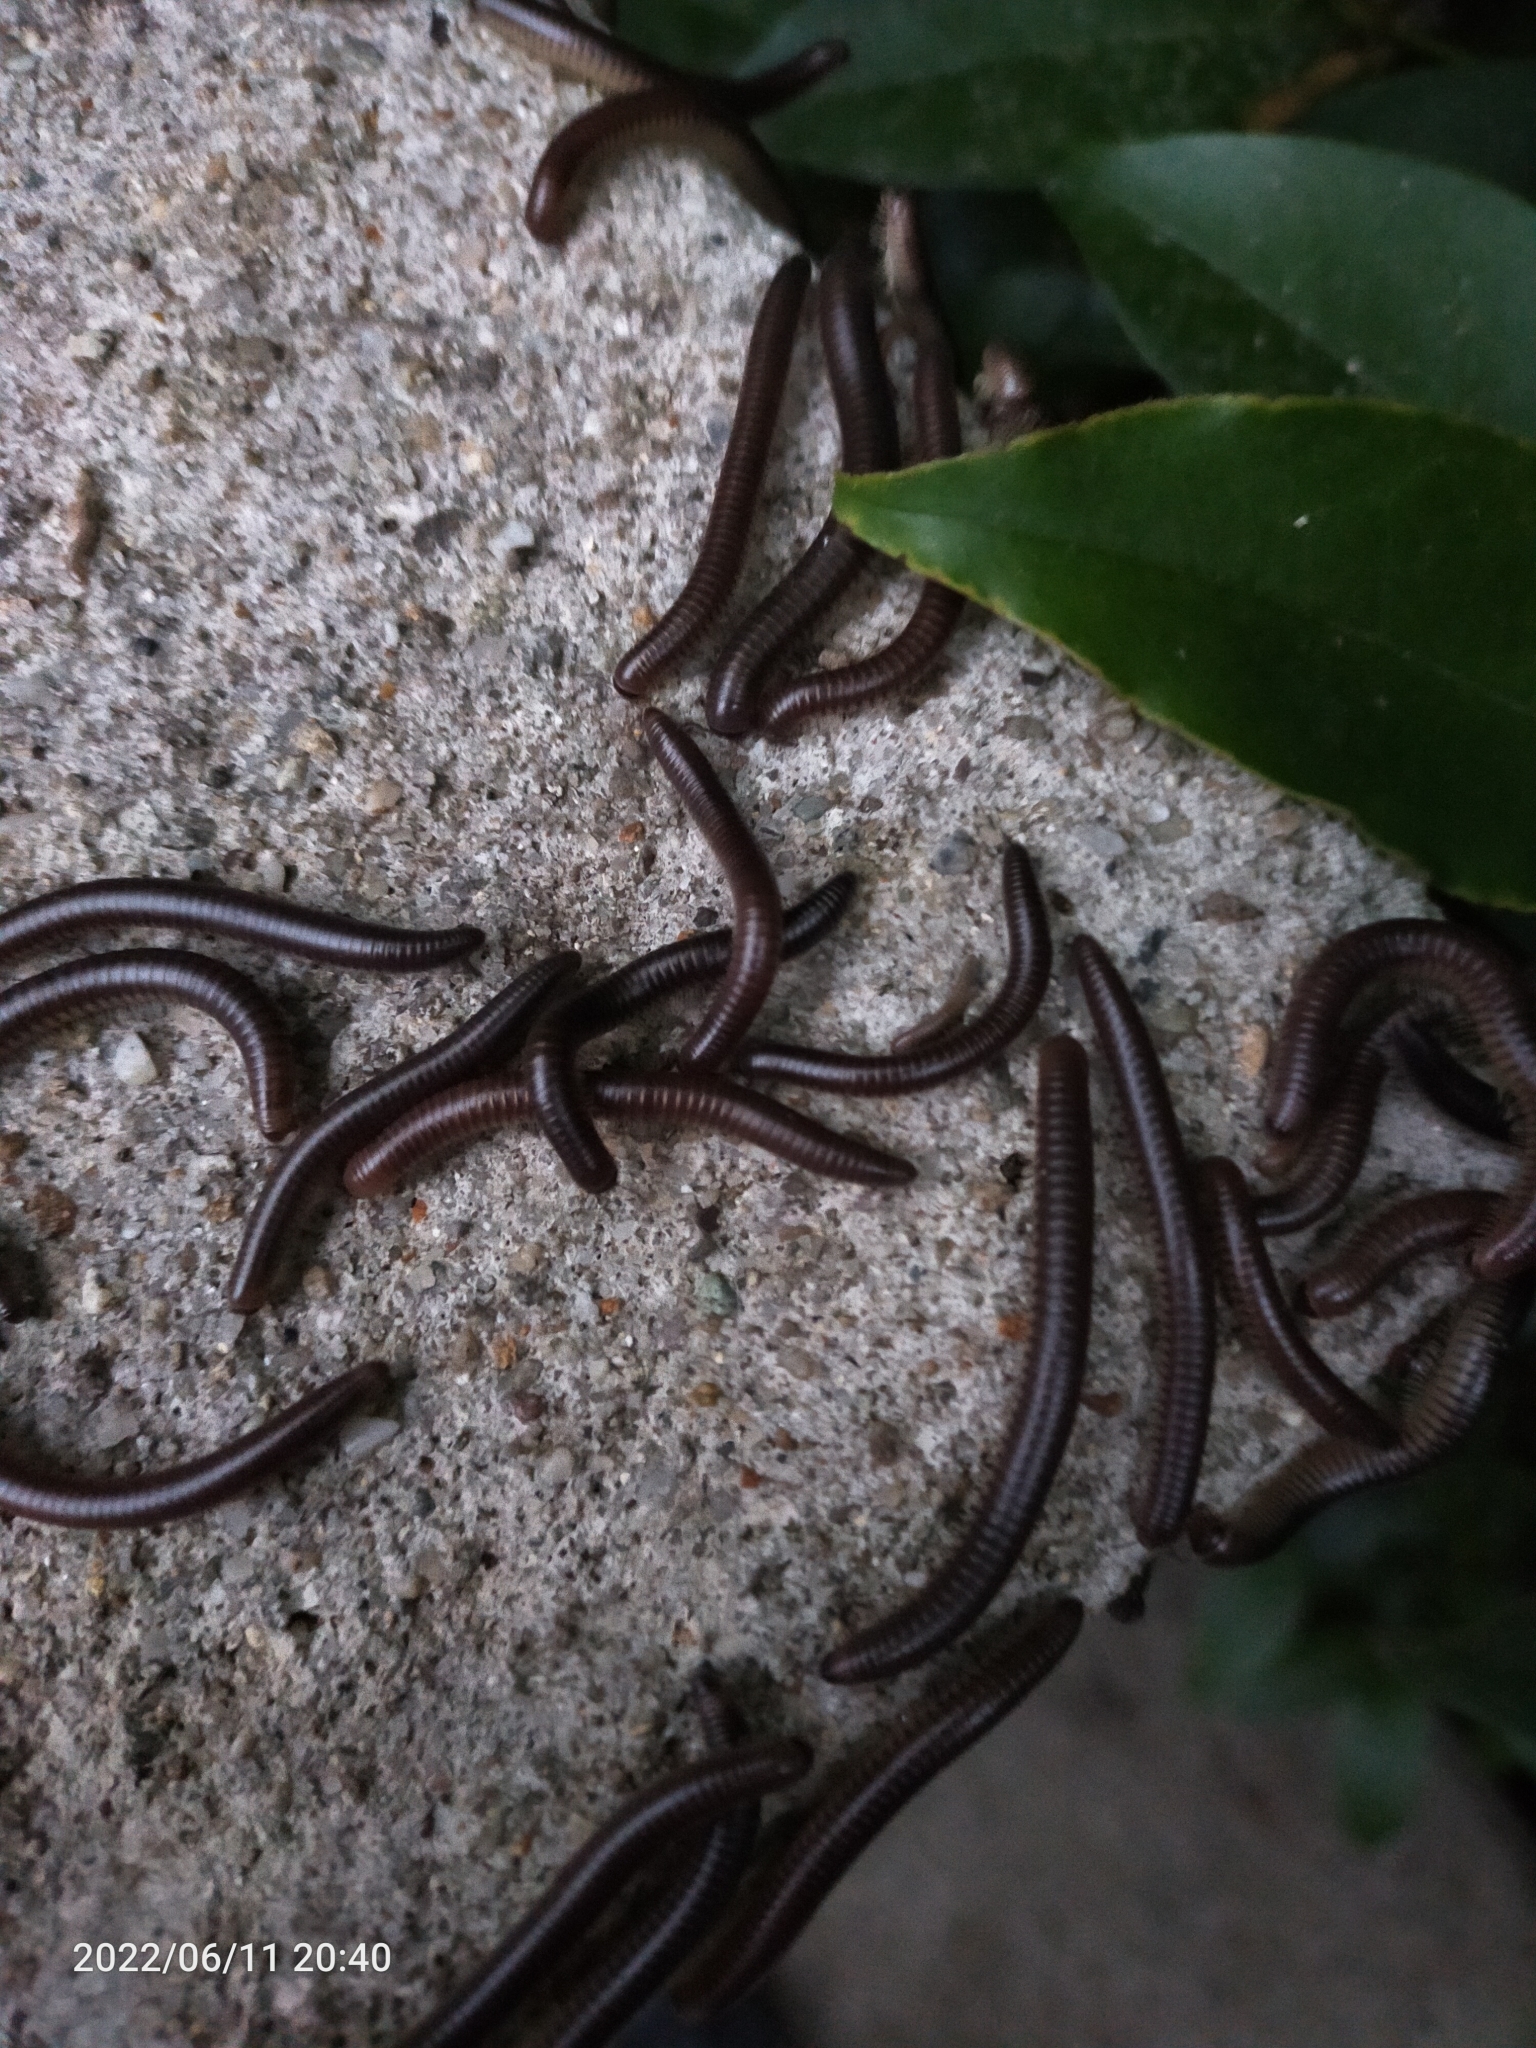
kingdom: Animalia
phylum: Arthropoda
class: Diplopoda
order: Julida
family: Julidae
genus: Pachyiulus
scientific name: Pachyiulus flavipes
